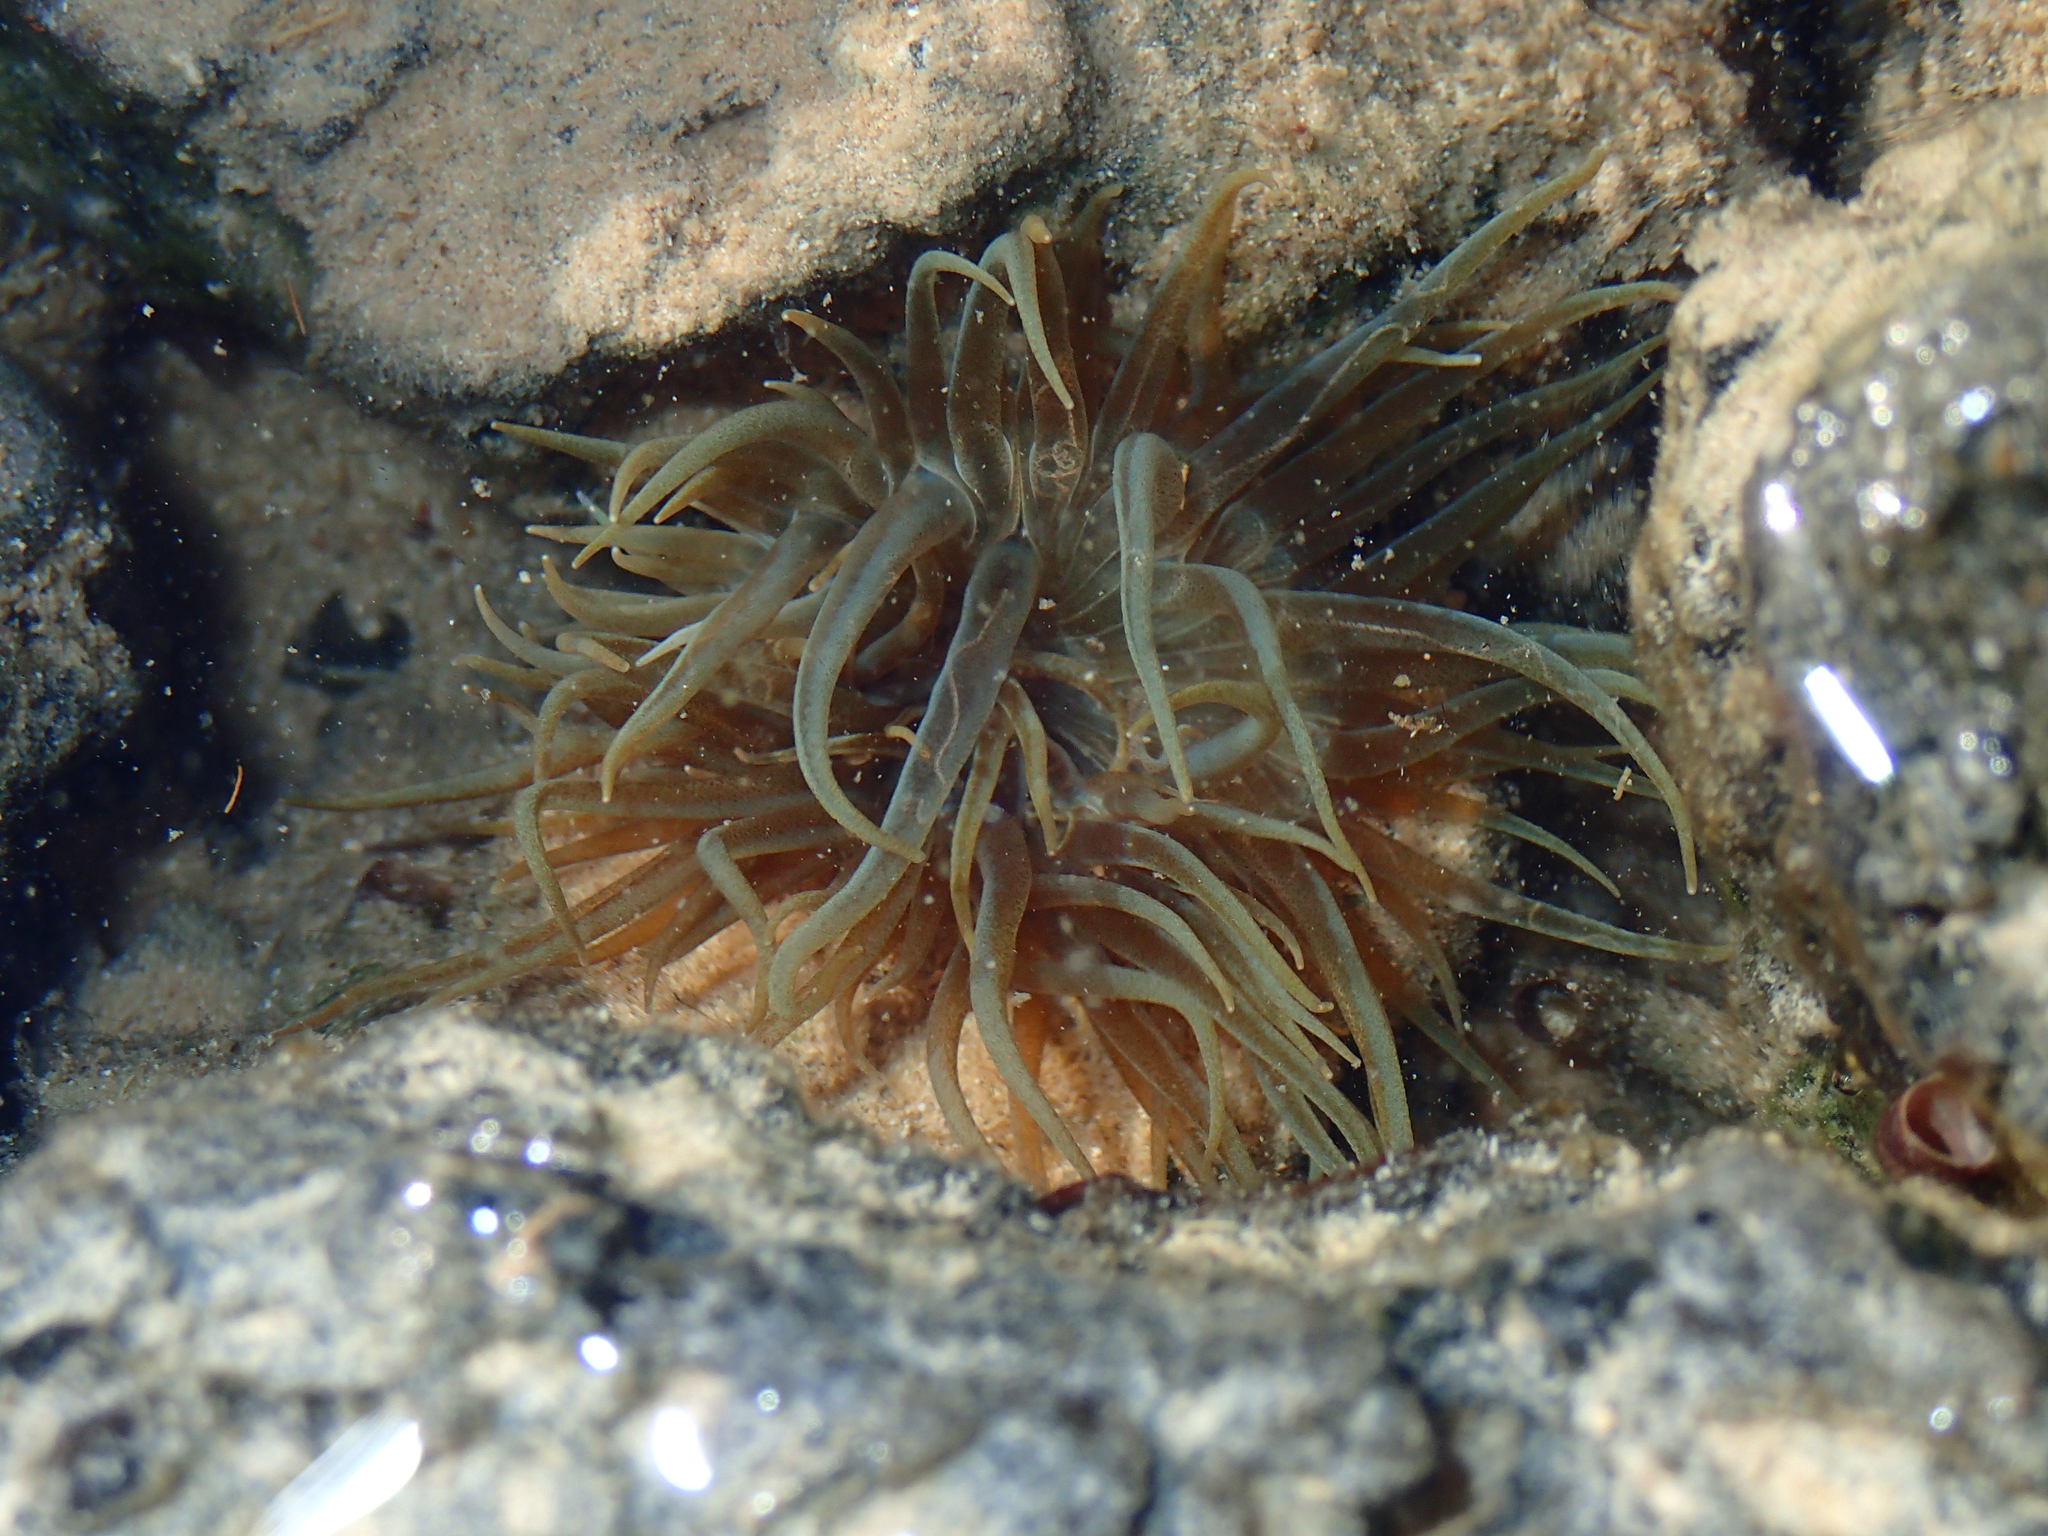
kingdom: Animalia
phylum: Cnidaria
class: Anthozoa
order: Actiniaria
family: Aiptasiidae
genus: Aiptasia
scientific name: Aiptasia couchii
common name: Trumpet anemone
